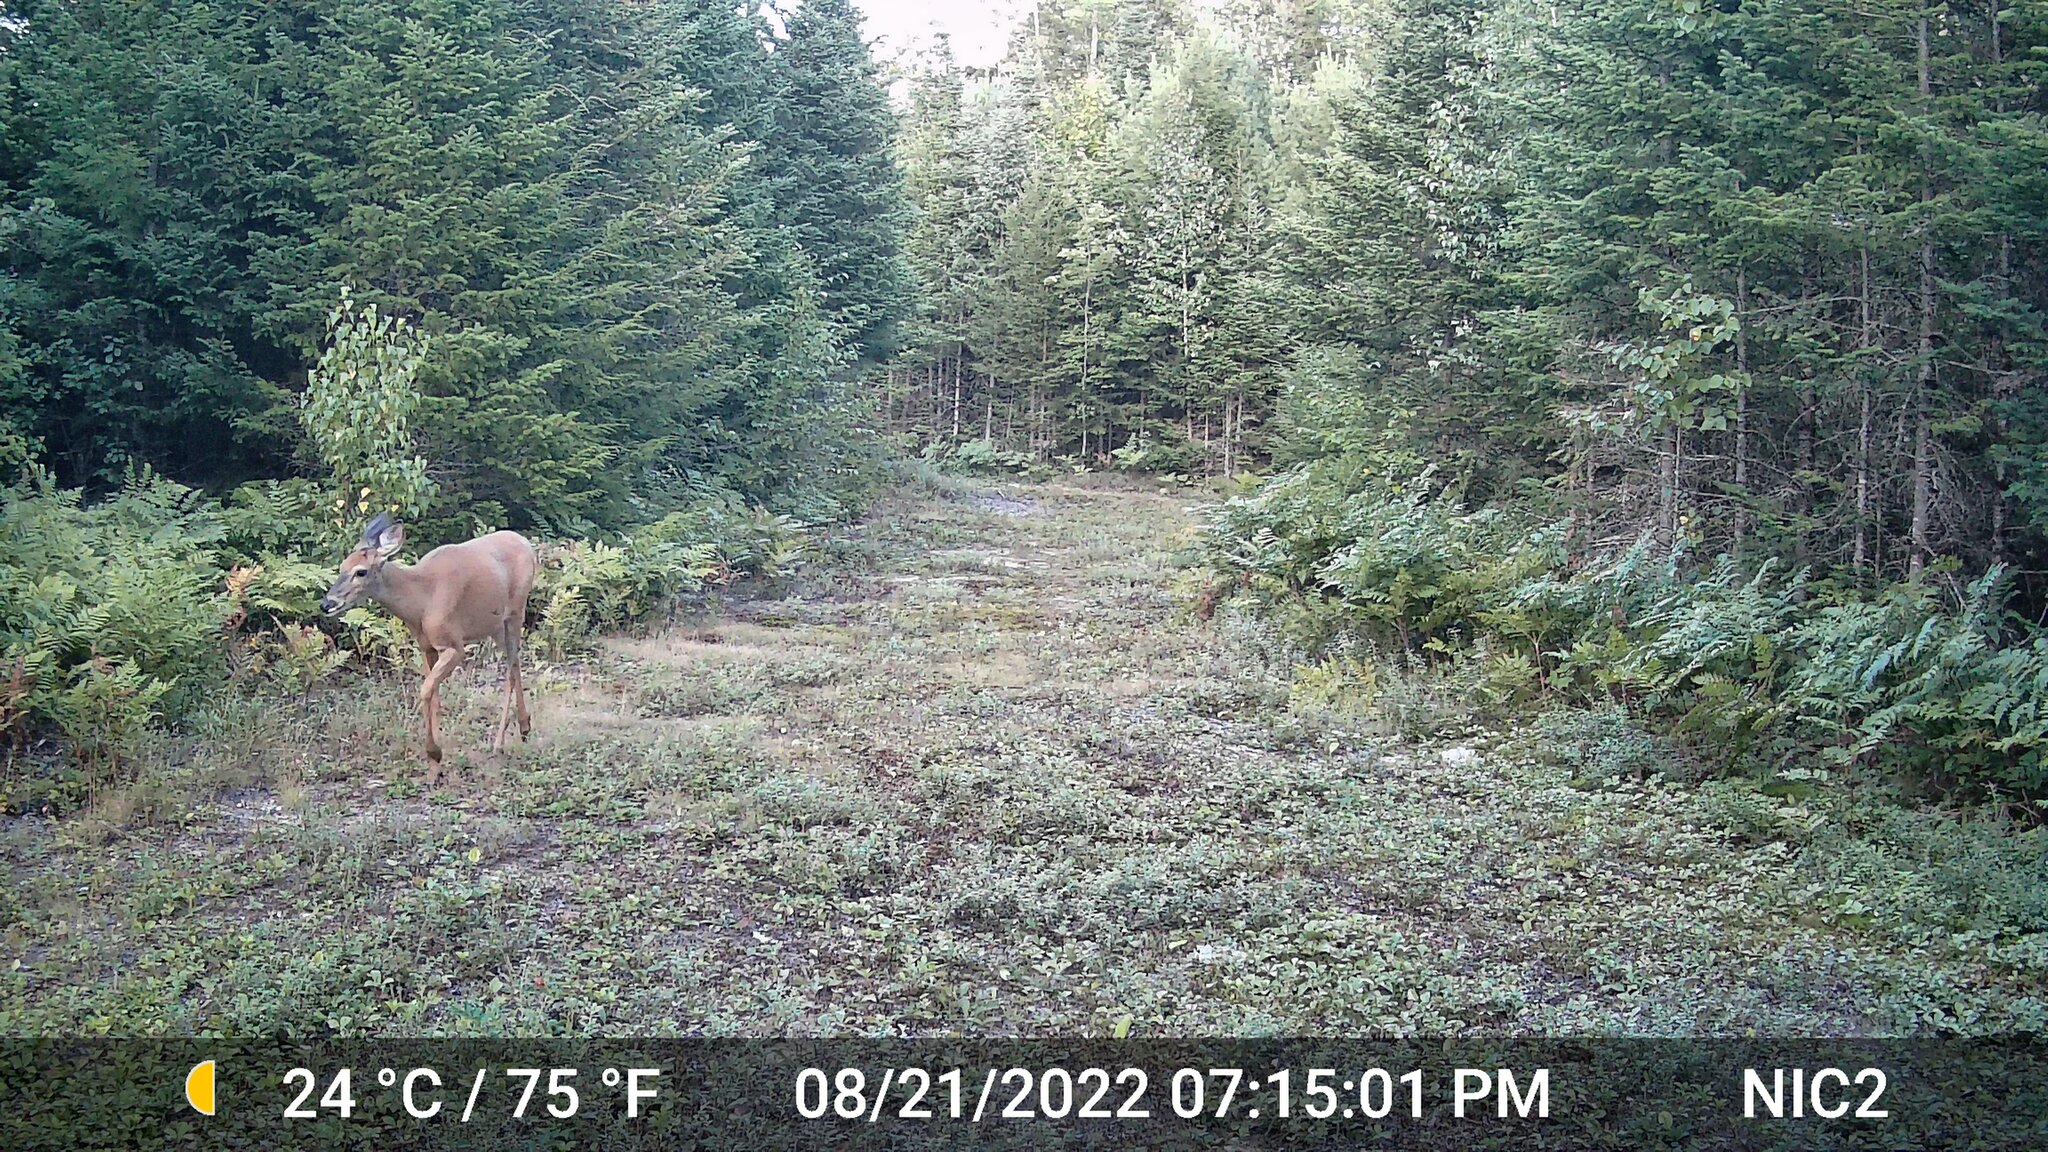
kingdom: Animalia
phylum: Chordata
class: Mammalia
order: Artiodactyla
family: Cervidae
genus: Odocoileus
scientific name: Odocoileus virginianus
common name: White-tailed deer
